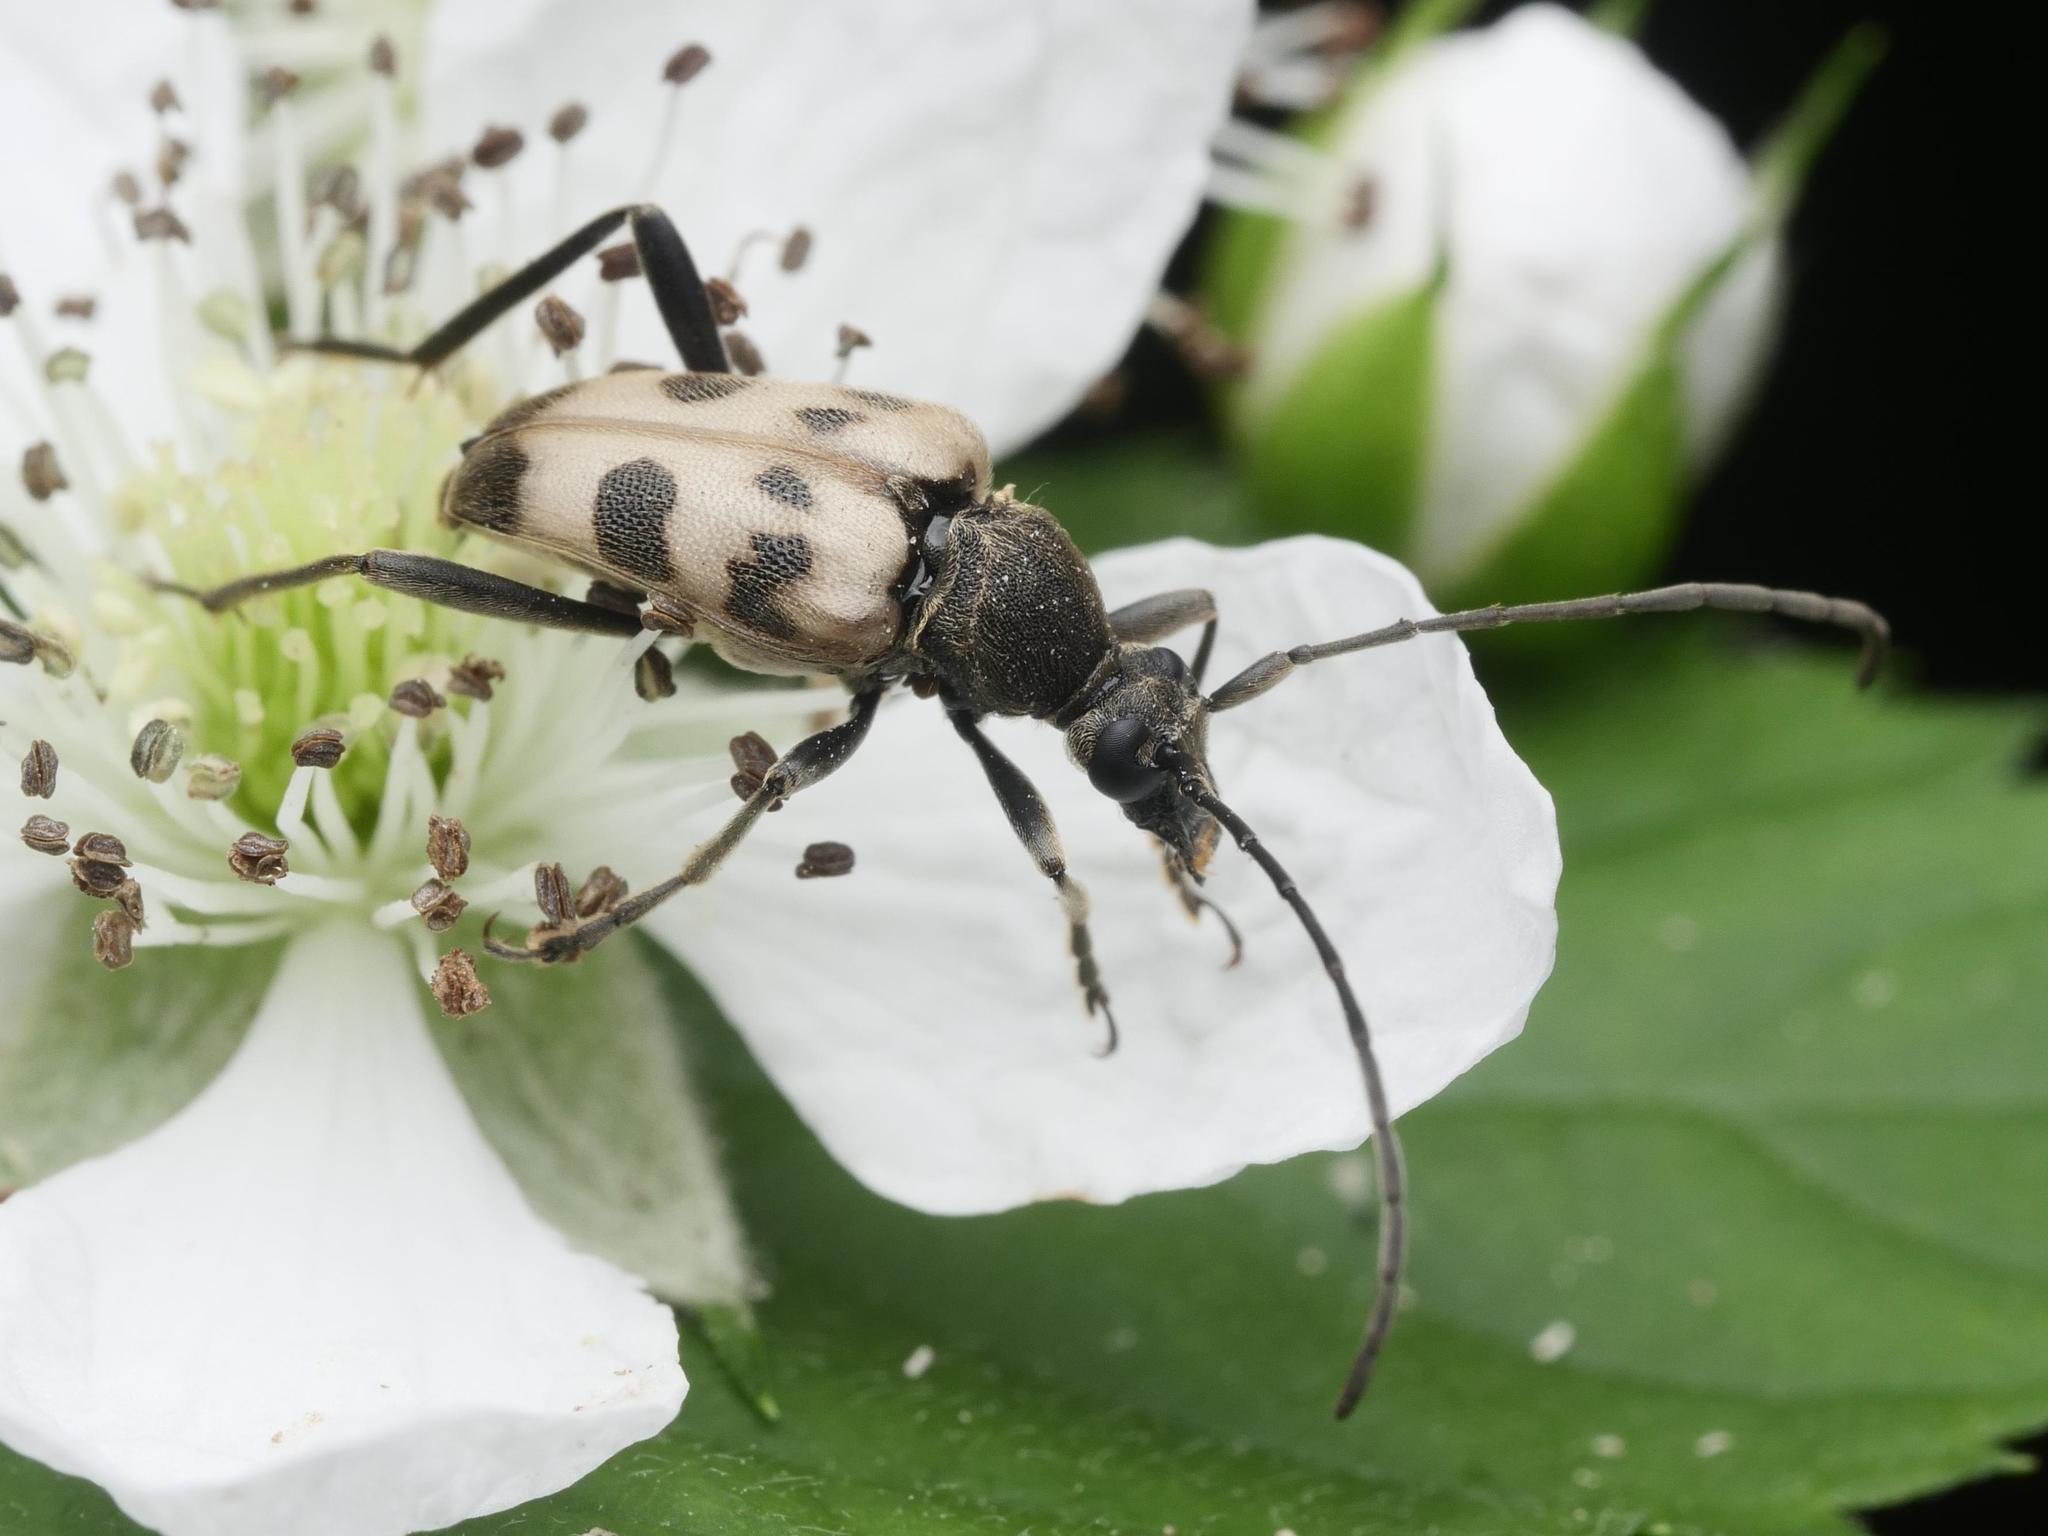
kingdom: Animalia
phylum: Arthropoda
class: Insecta
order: Coleoptera
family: Cerambycidae
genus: Pachytodes
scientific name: Pachytodes cerambyciformis
